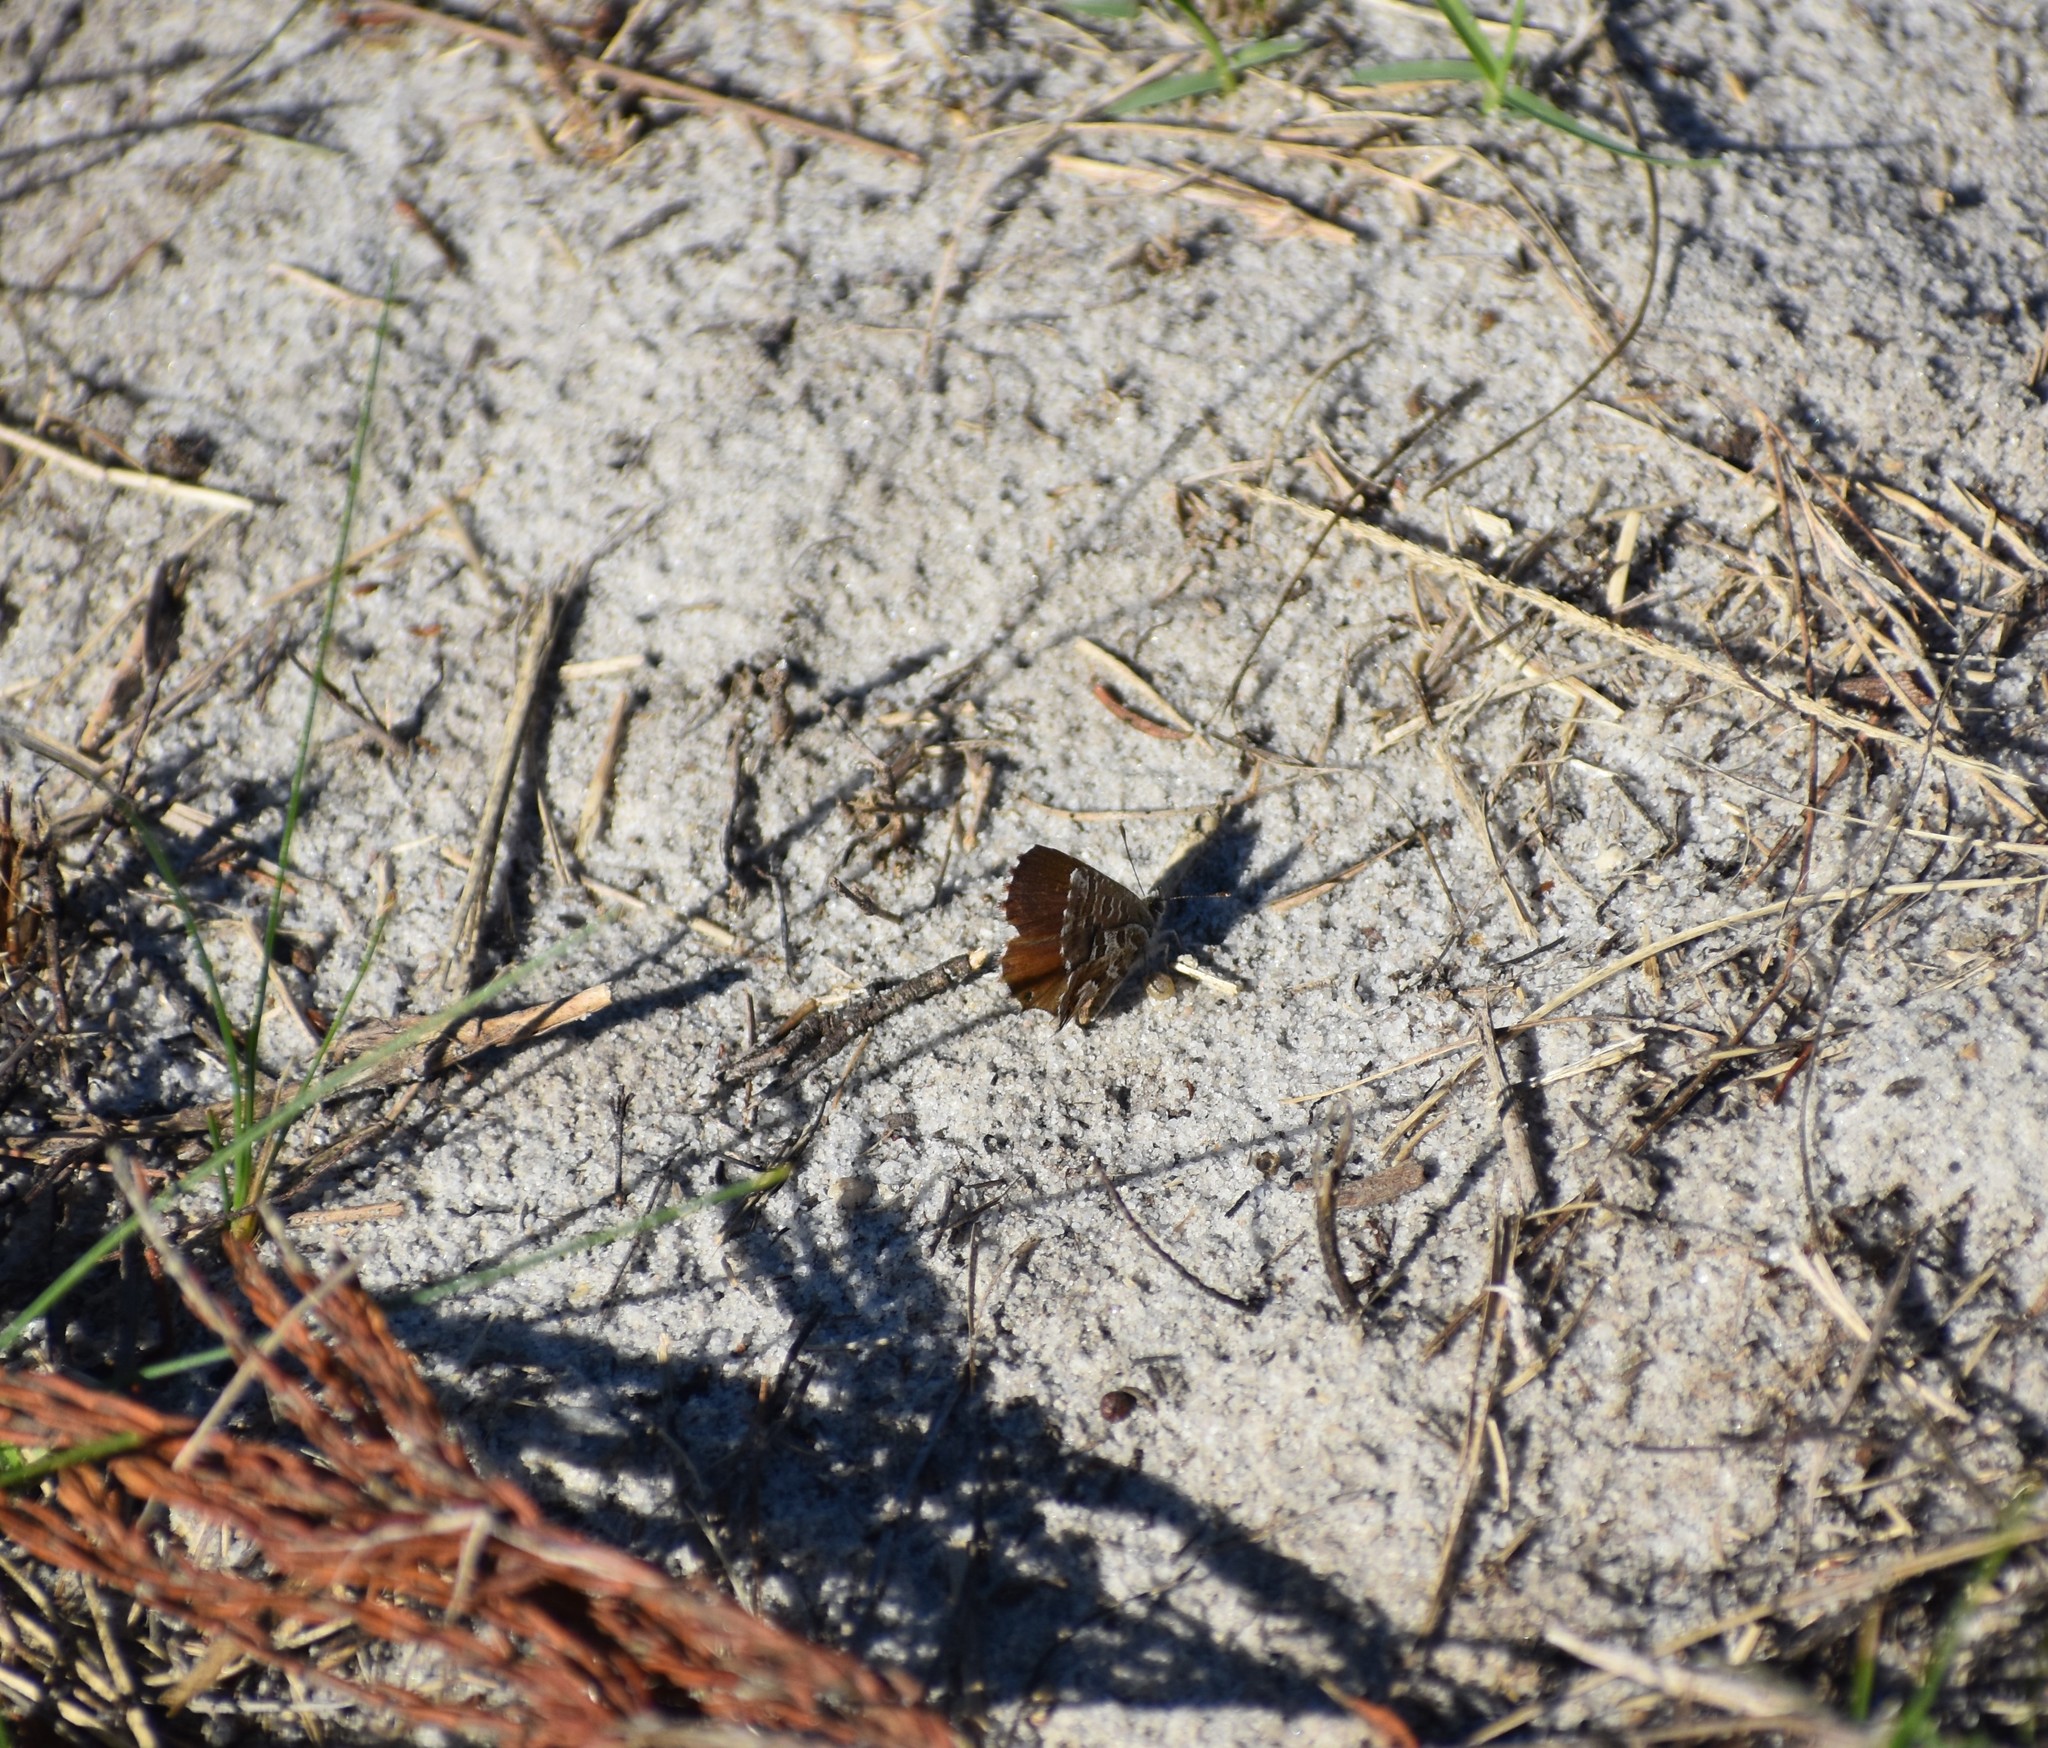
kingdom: Animalia
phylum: Arthropoda
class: Insecta
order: Lepidoptera
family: Lycaenidae
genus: Cacyreus
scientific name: Cacyreus marshalli
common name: Geranium bronze
